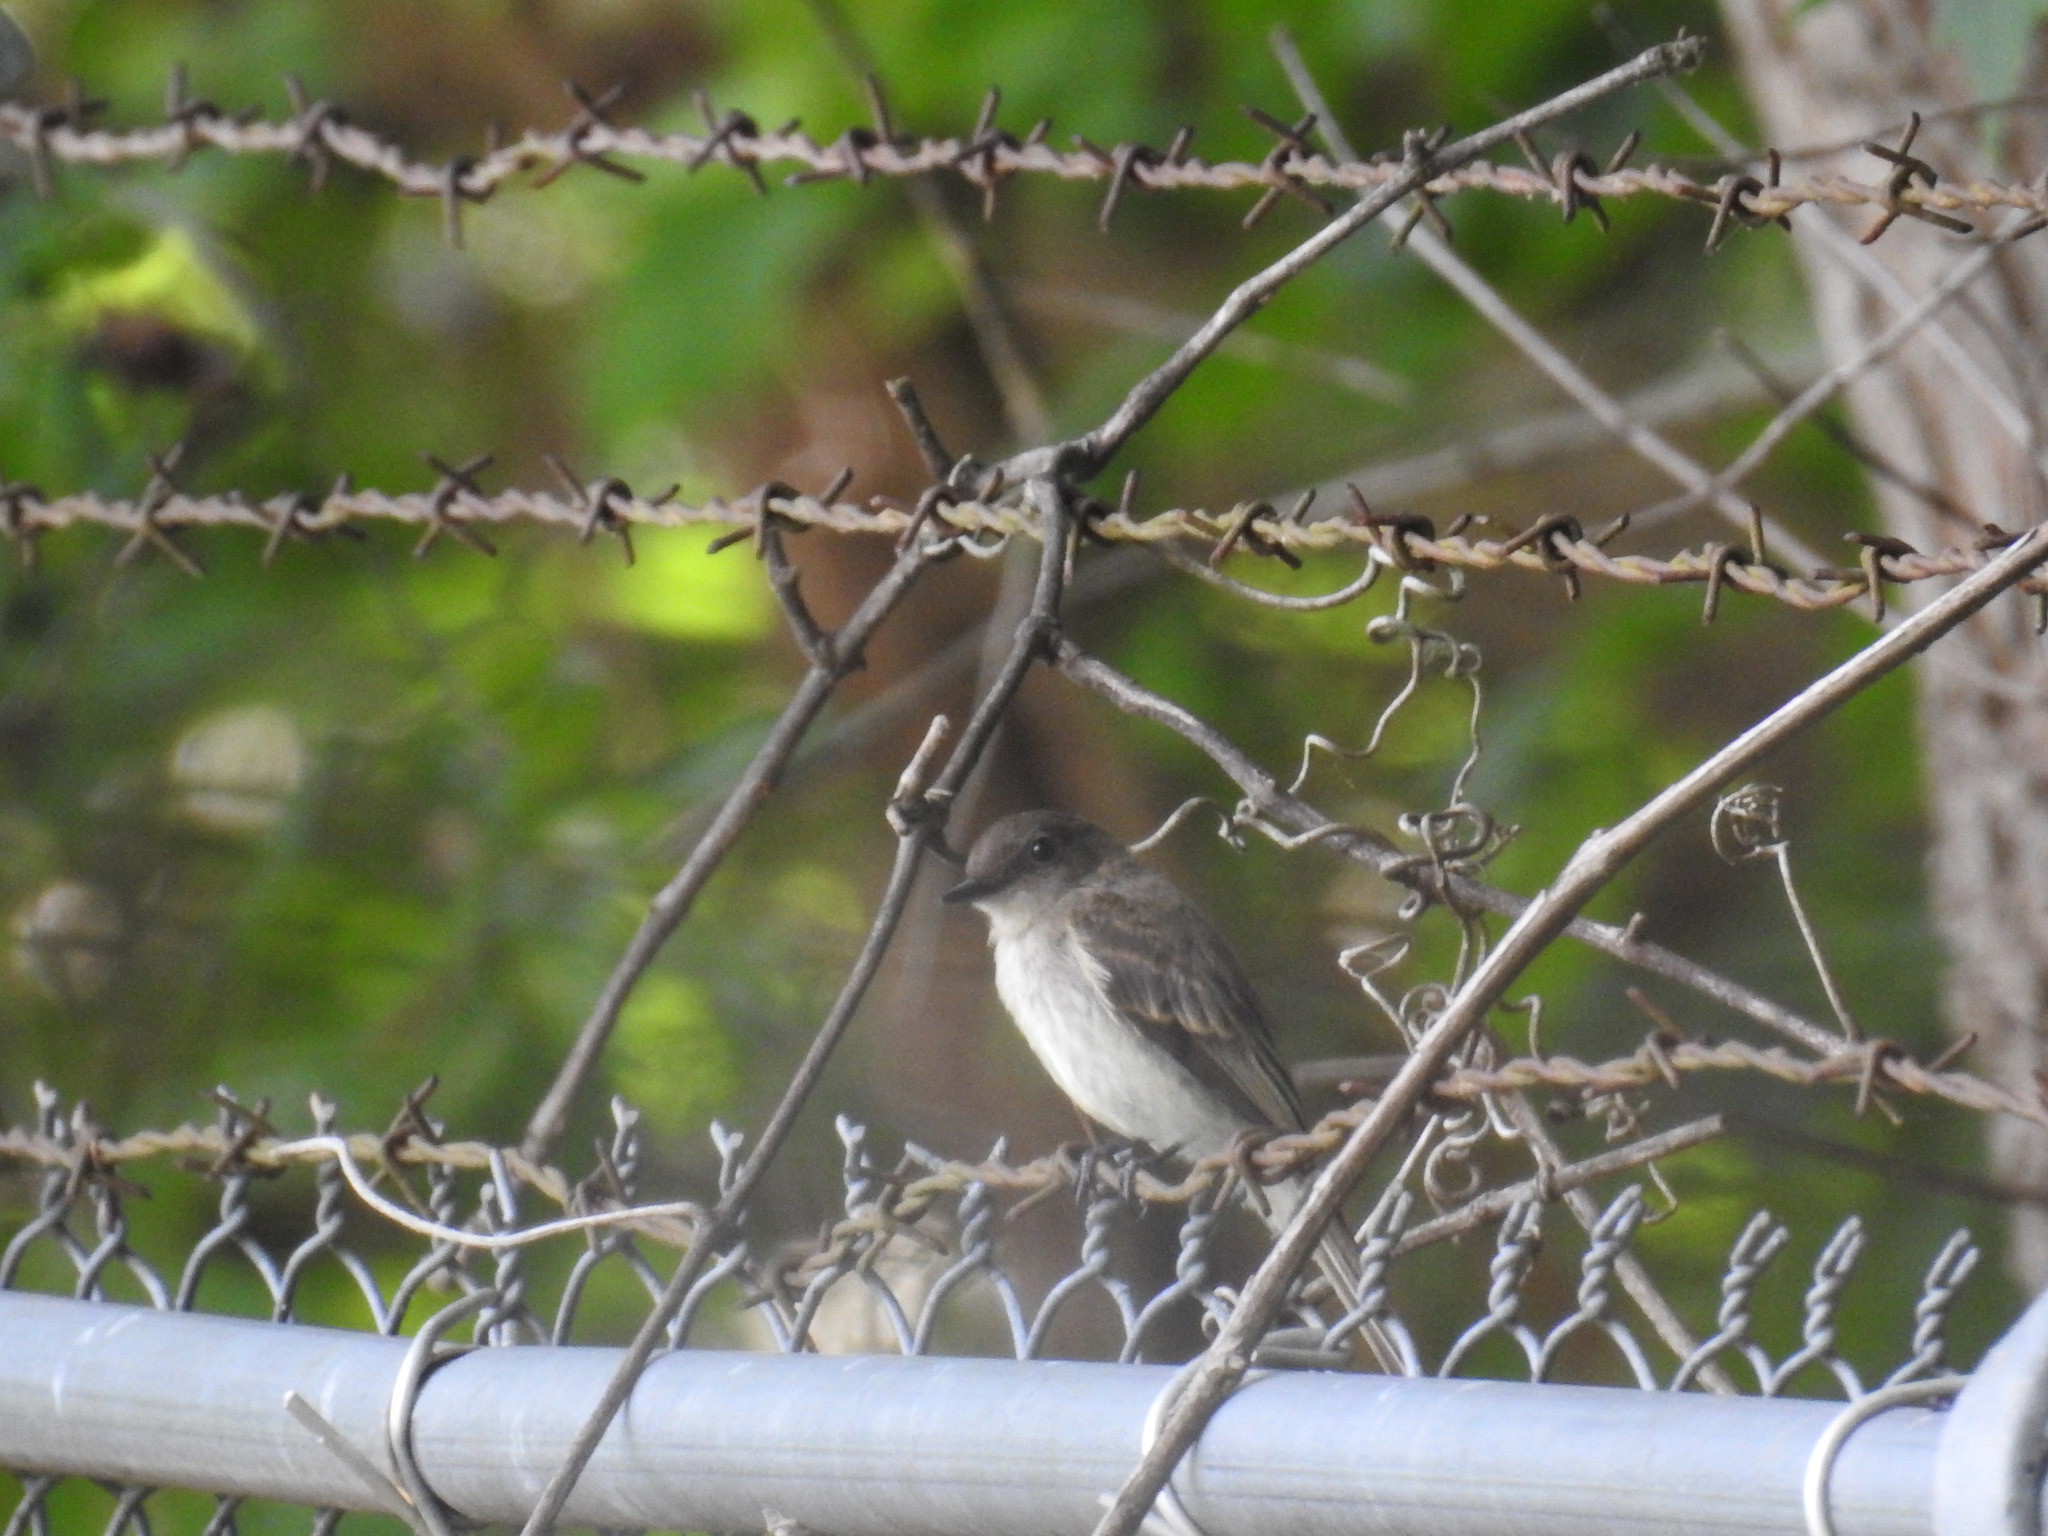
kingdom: Animalia
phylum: Chordata
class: Aves
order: Passeriformes
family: Tyrannidae
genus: Sayornis
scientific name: Sayornis phoebe
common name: Eastern phoebe
